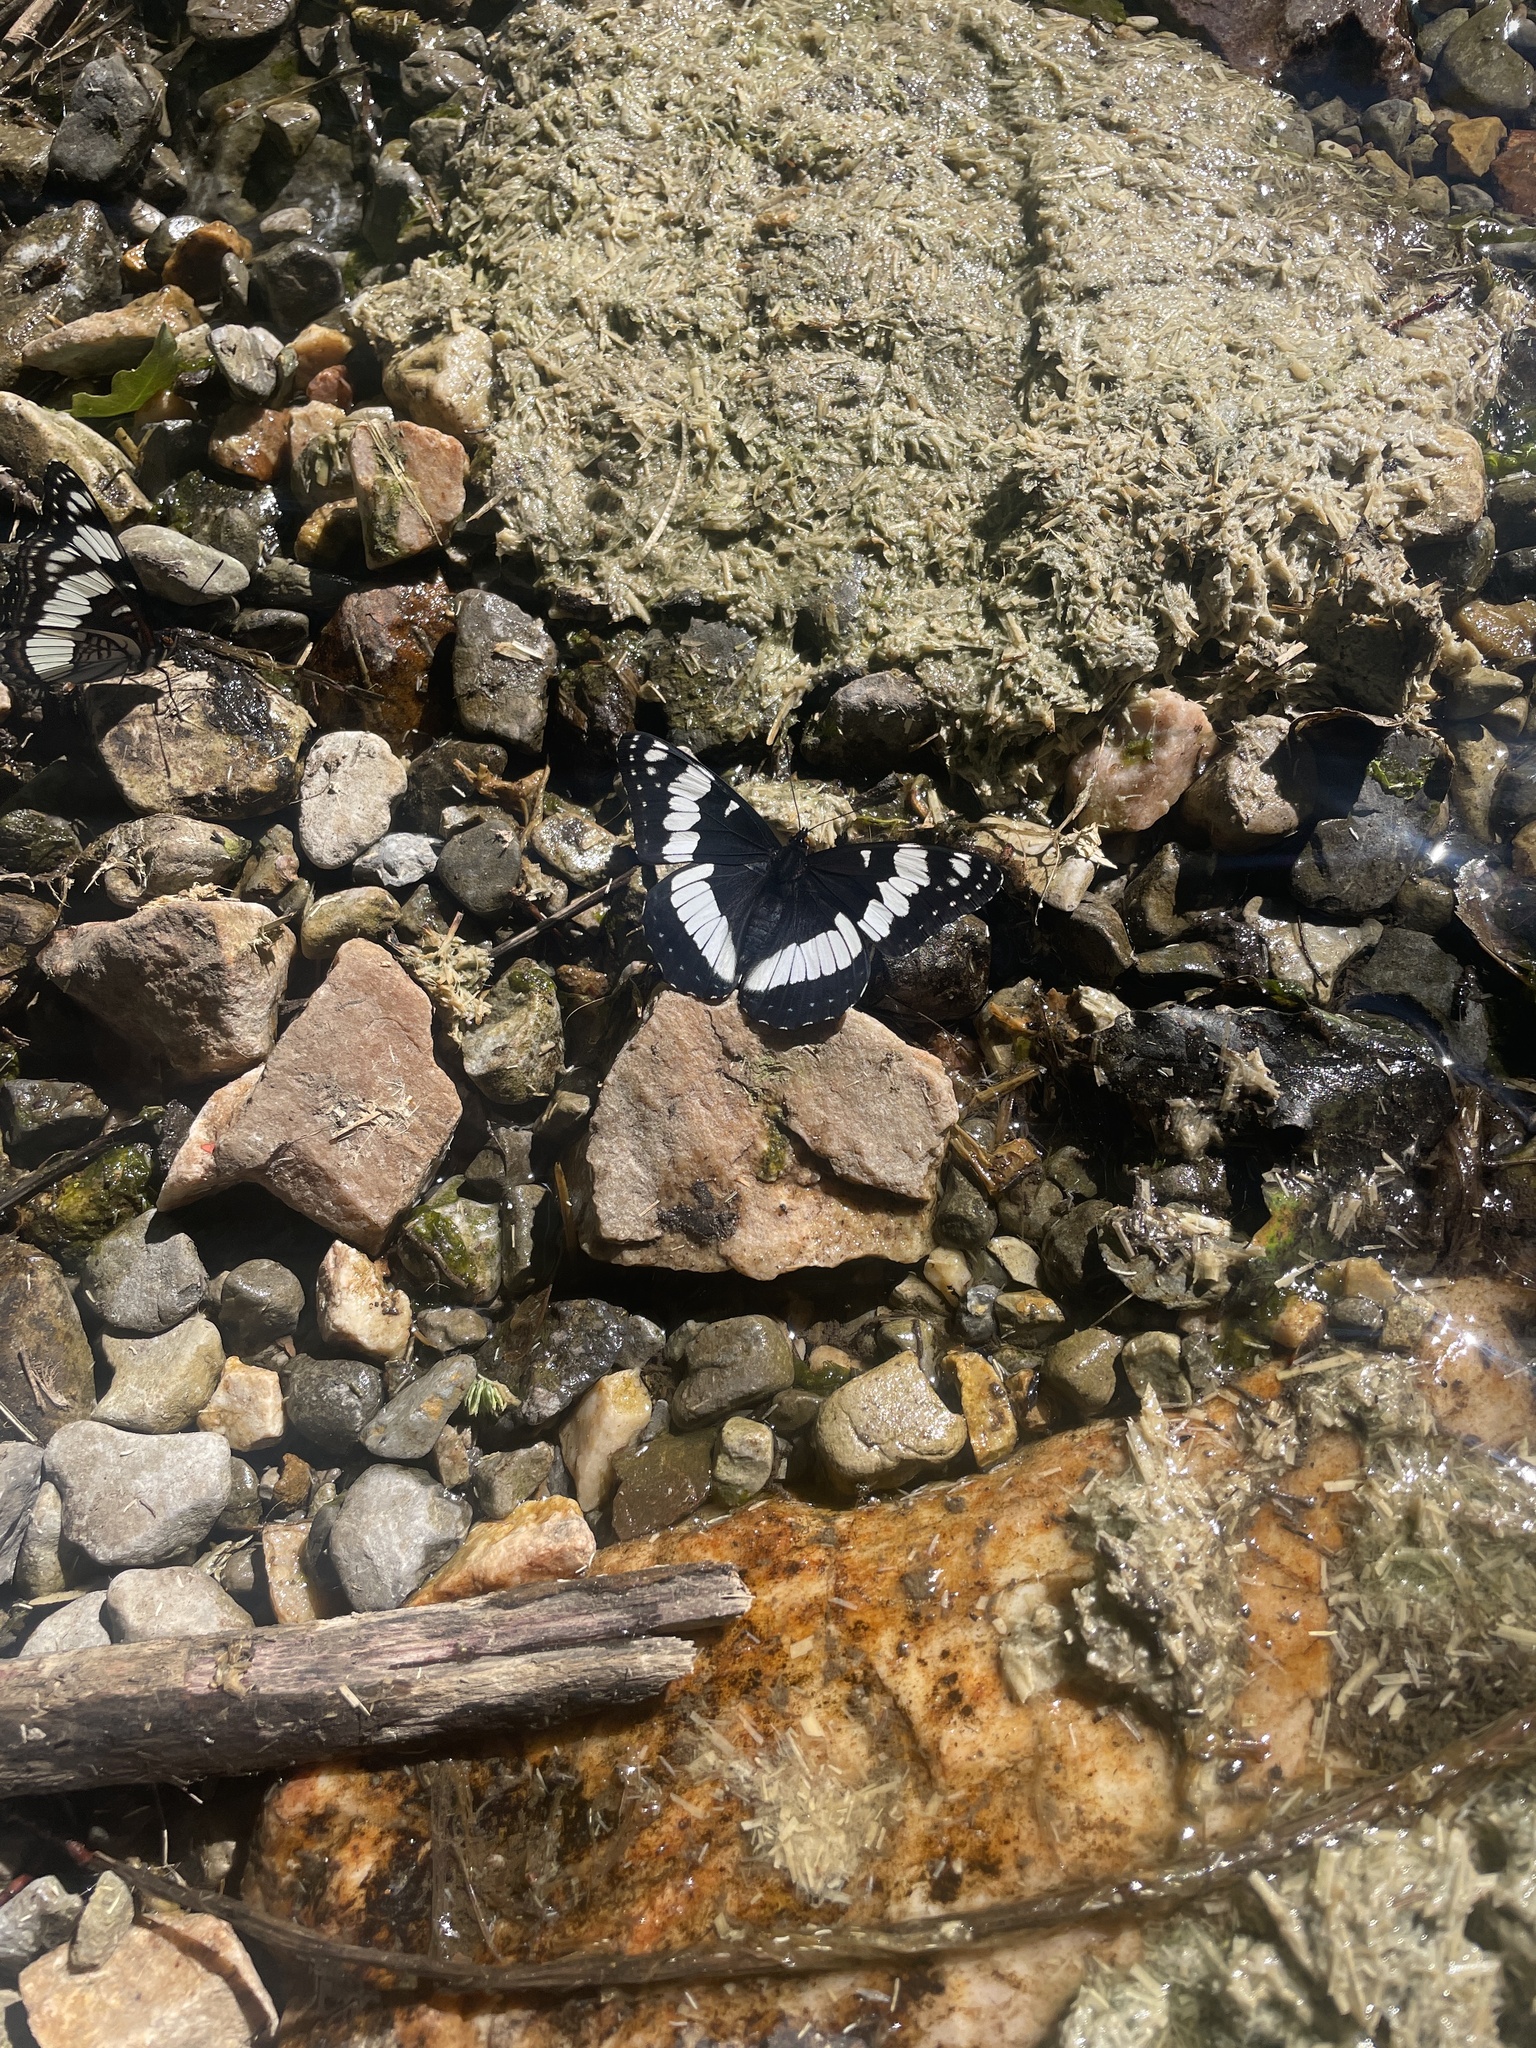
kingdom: Animalia
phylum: Arthropoda
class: Insecta
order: Lepidoptera
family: Nymphalidae
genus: Limenitis
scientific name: Limenitis weidemeyerii
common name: Weidemeyer's admiral
